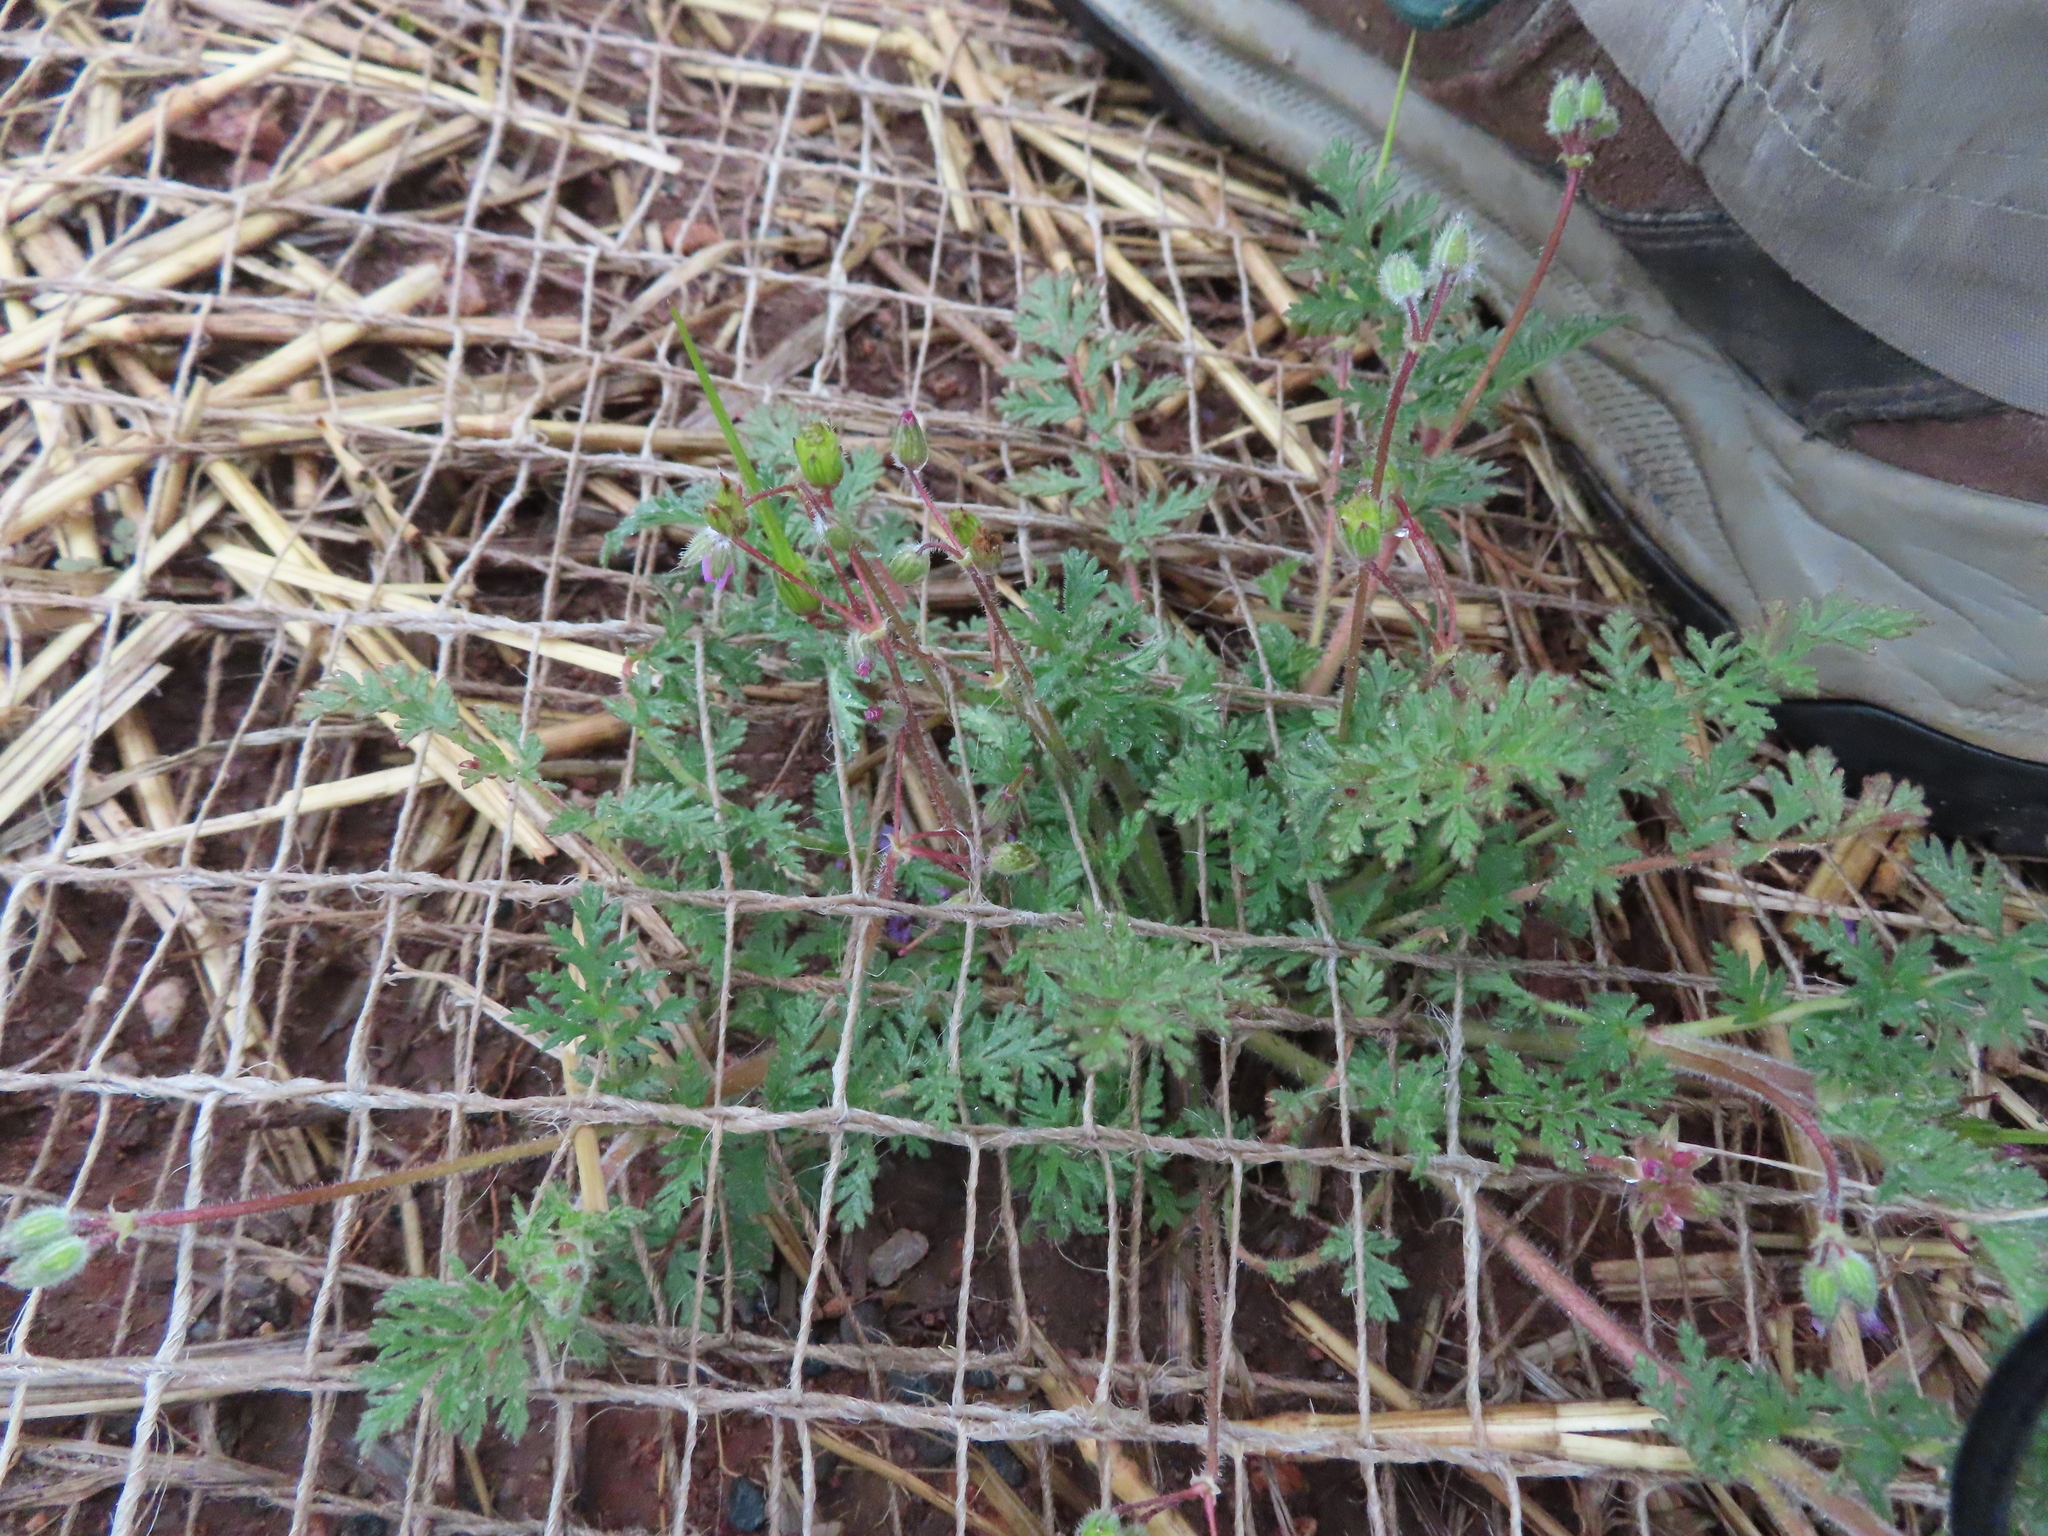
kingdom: Plantae
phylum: Tracheophyta
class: Magnoliopsida
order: Geraniales
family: Geraniaceae
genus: Erodium
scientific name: Erodium cicutarium
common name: Common stork's-bill
